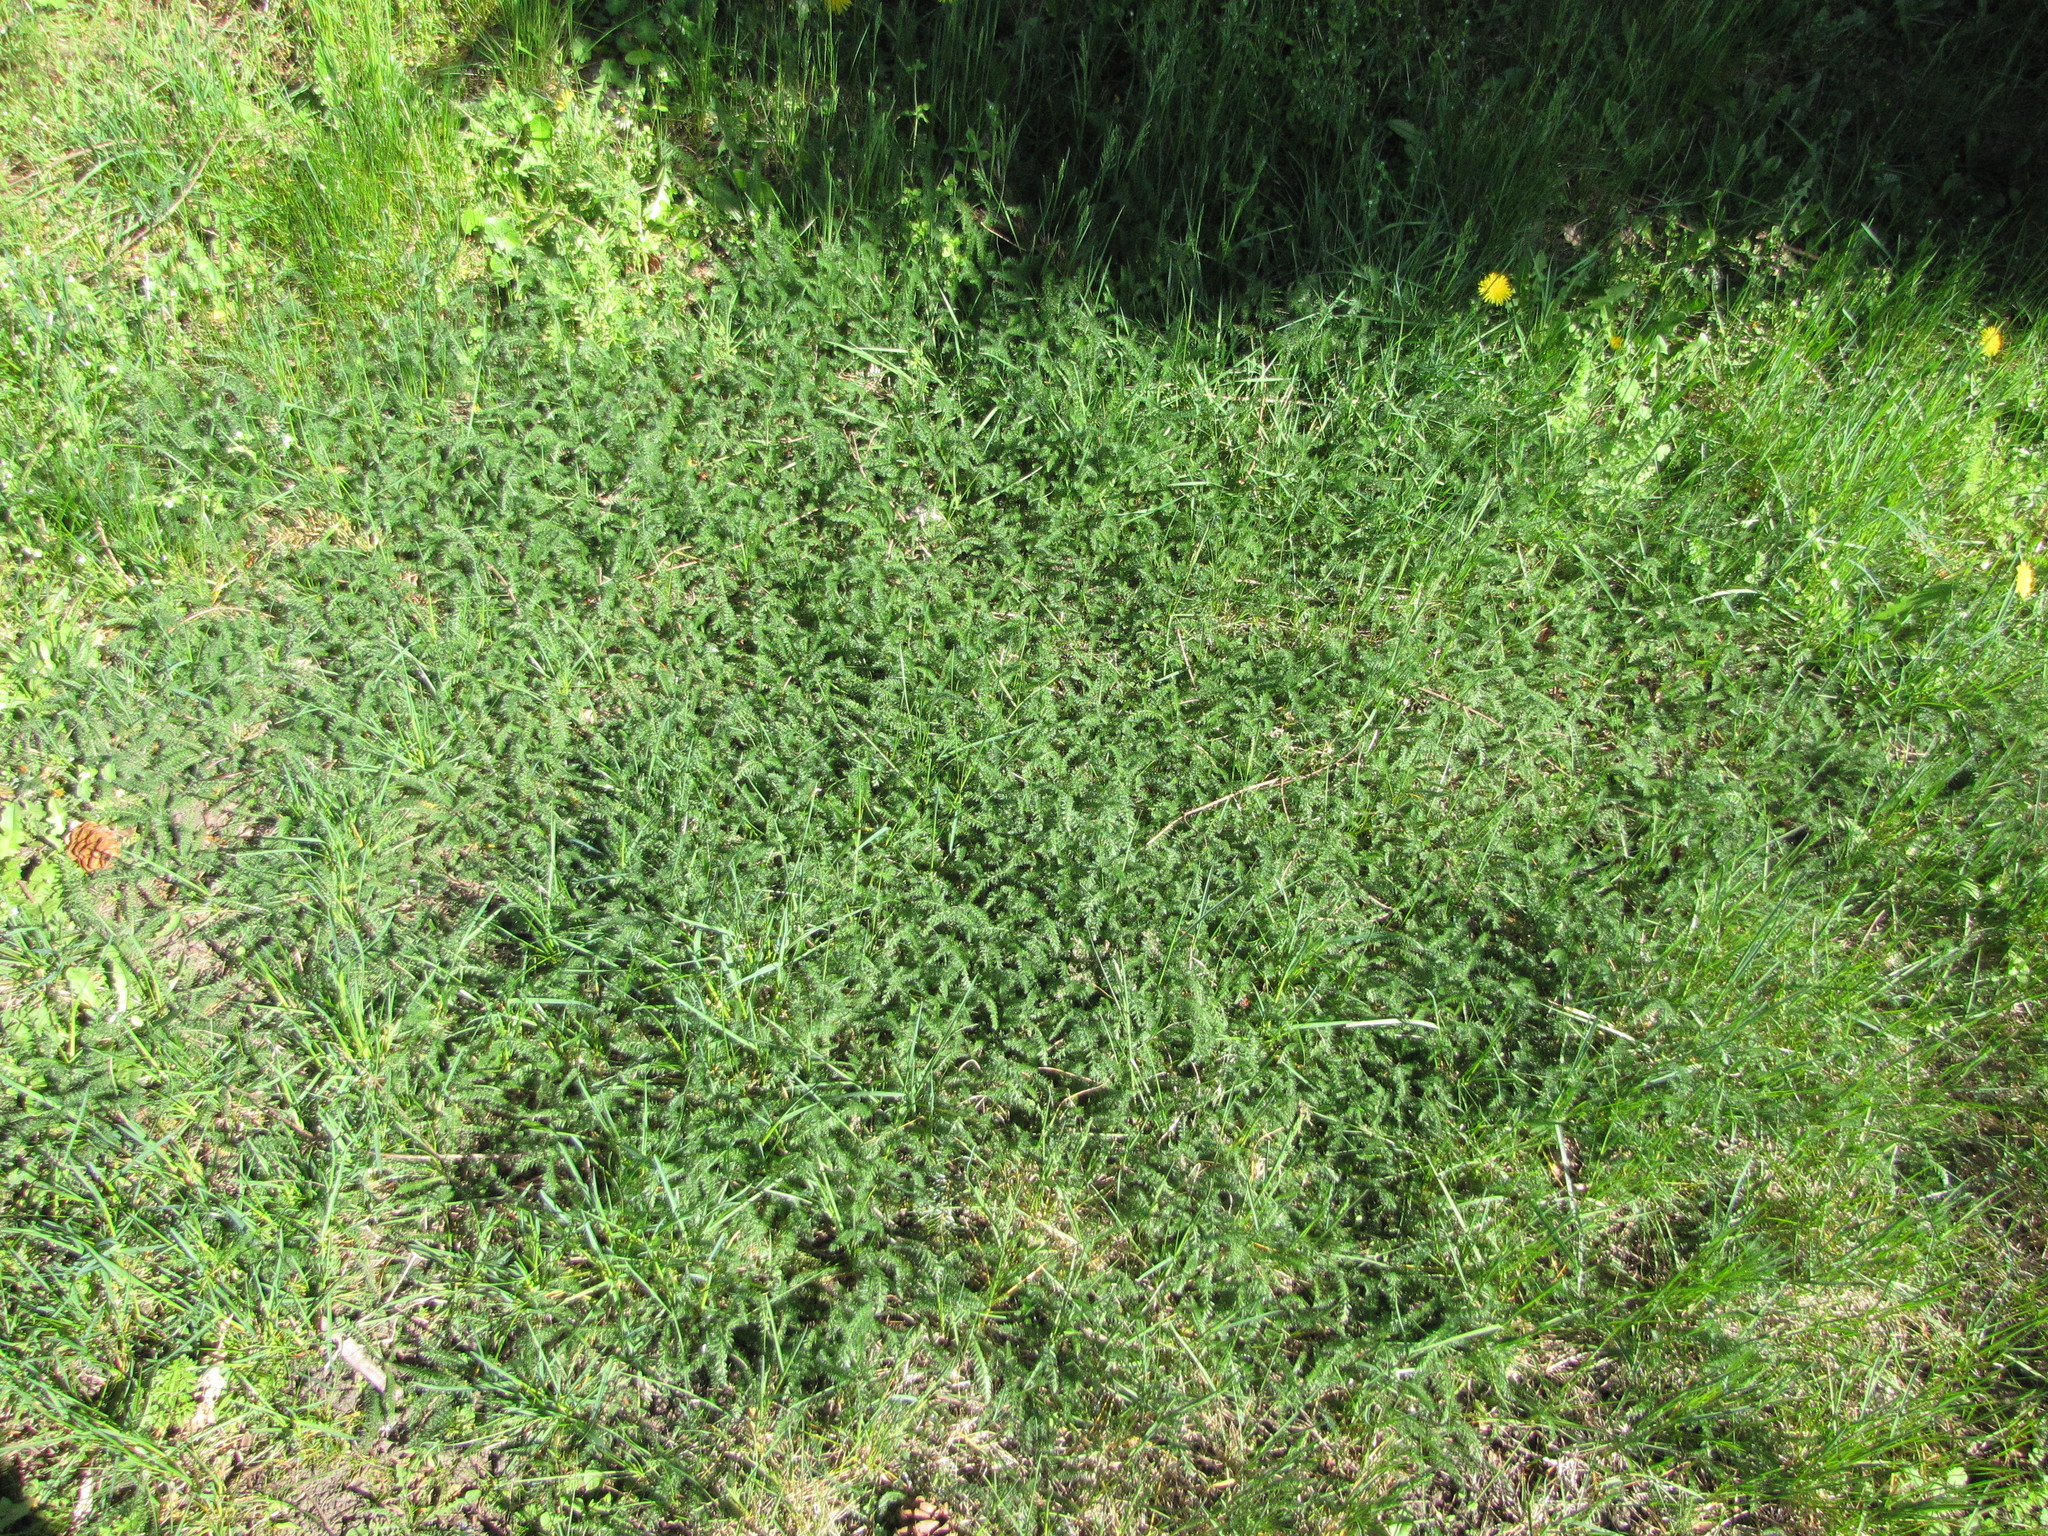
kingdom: Plantae
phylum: Tracheophyta
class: Magnoliopsida
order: Asterales
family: Asteraceae
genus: Achillea
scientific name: Achillea millefolium
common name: Yarrow
